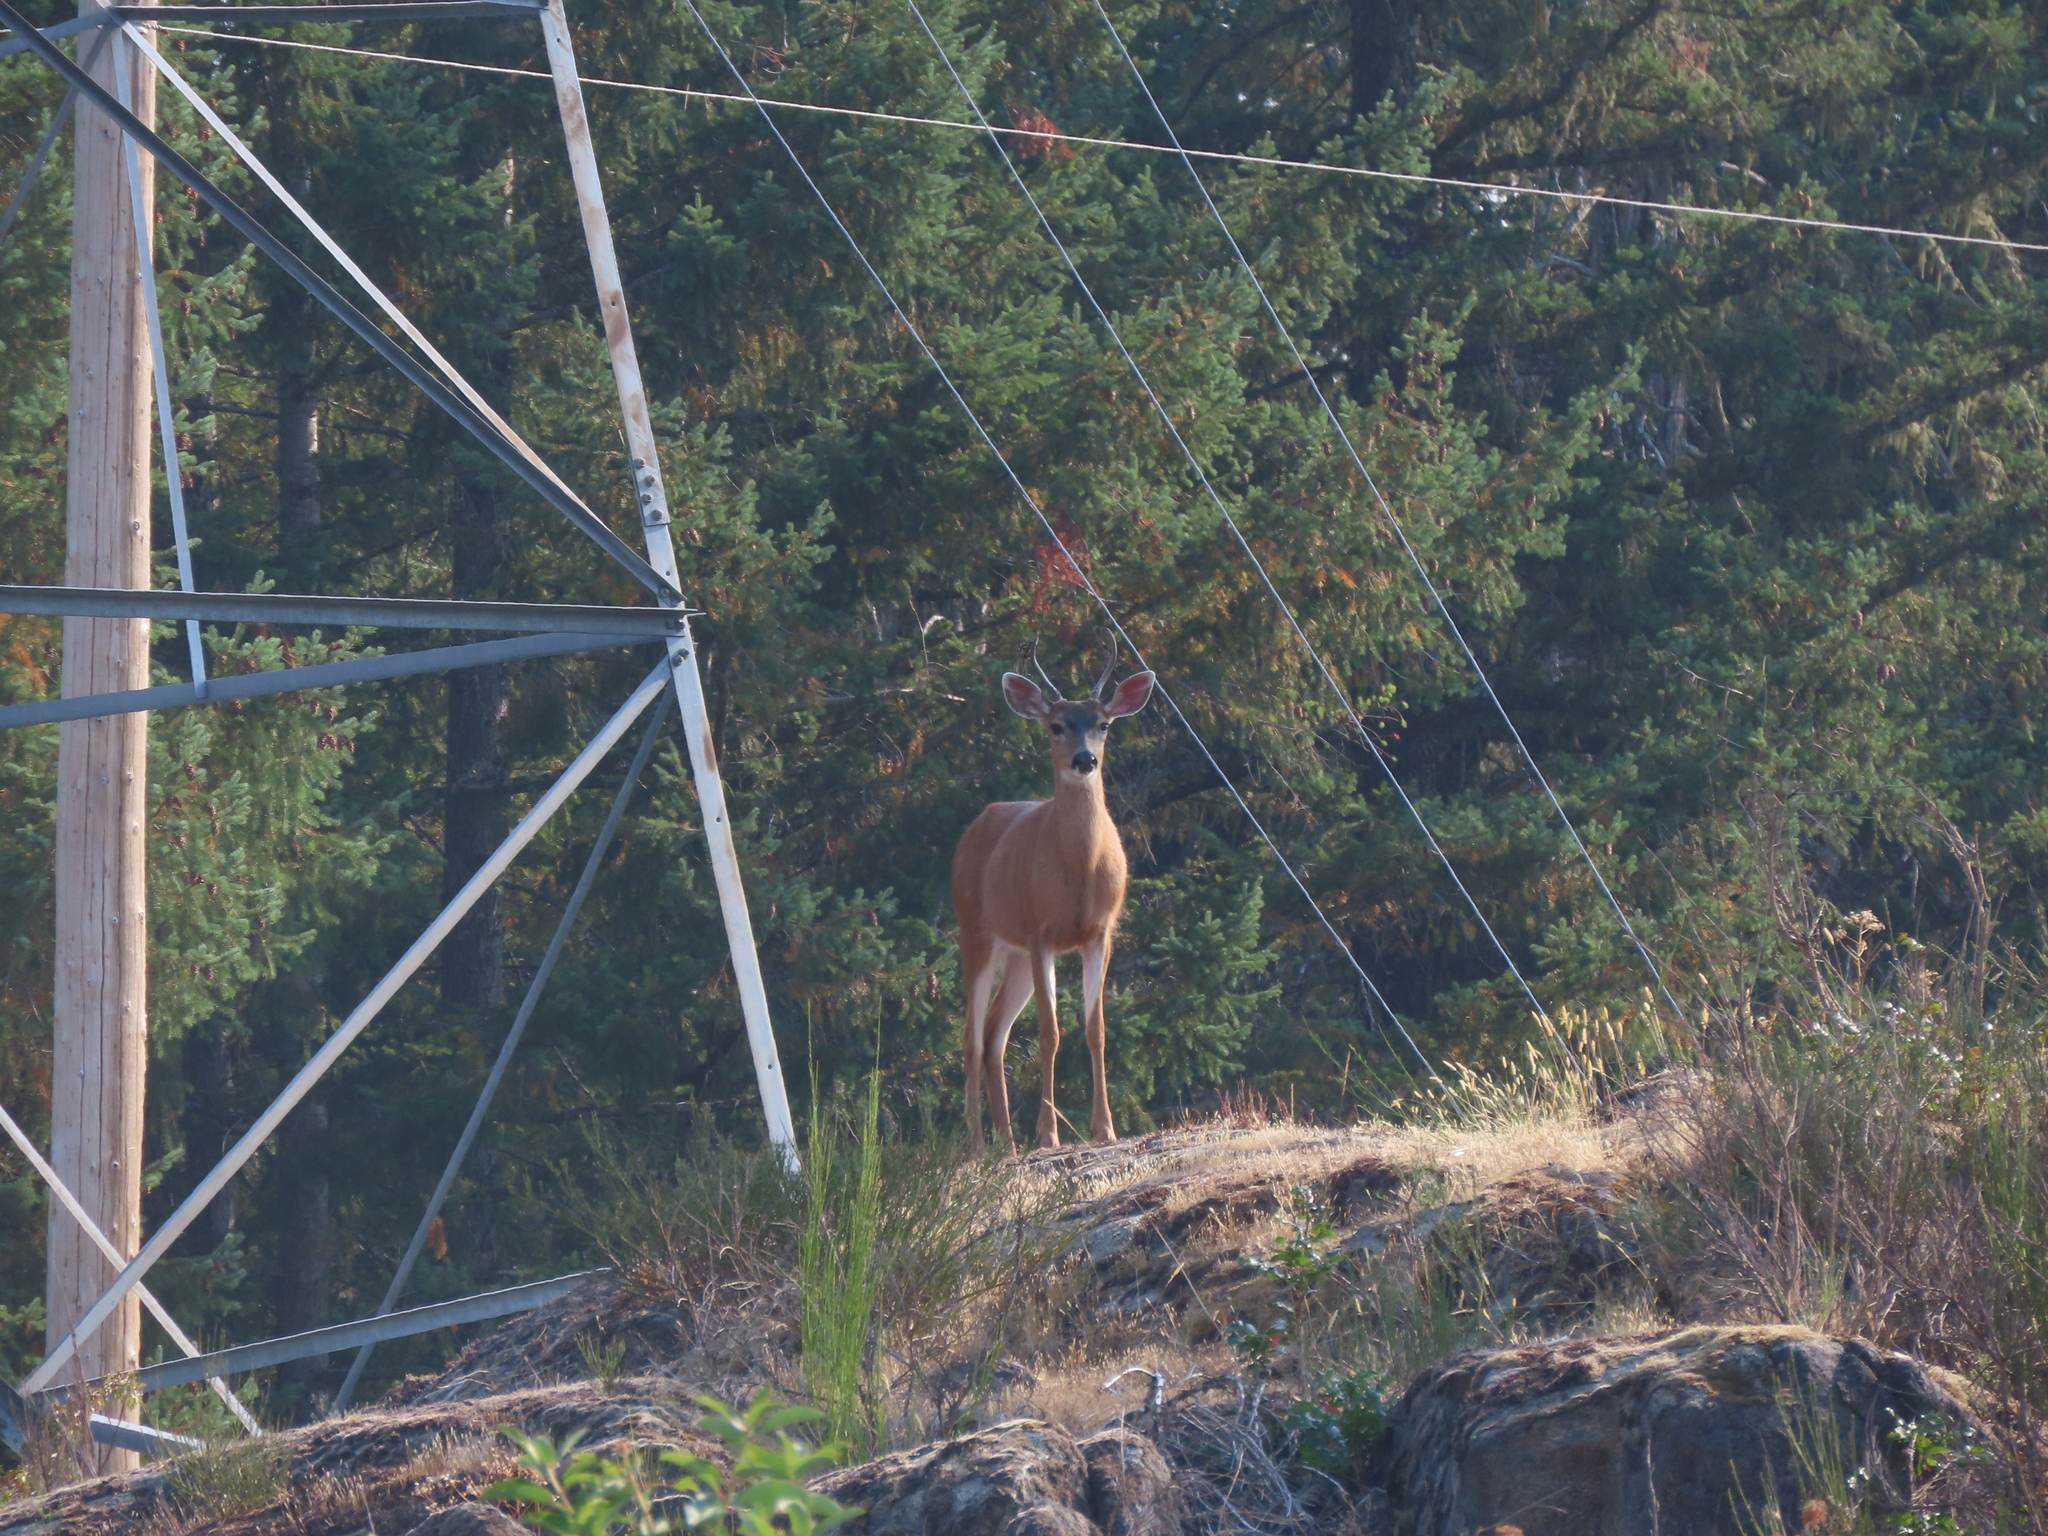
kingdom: Animalia
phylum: Chordata
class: Mammalia
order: Artiodactyla
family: Cervidae
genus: Odocoileus
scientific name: Odocoileus hemionus
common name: Mule deer
